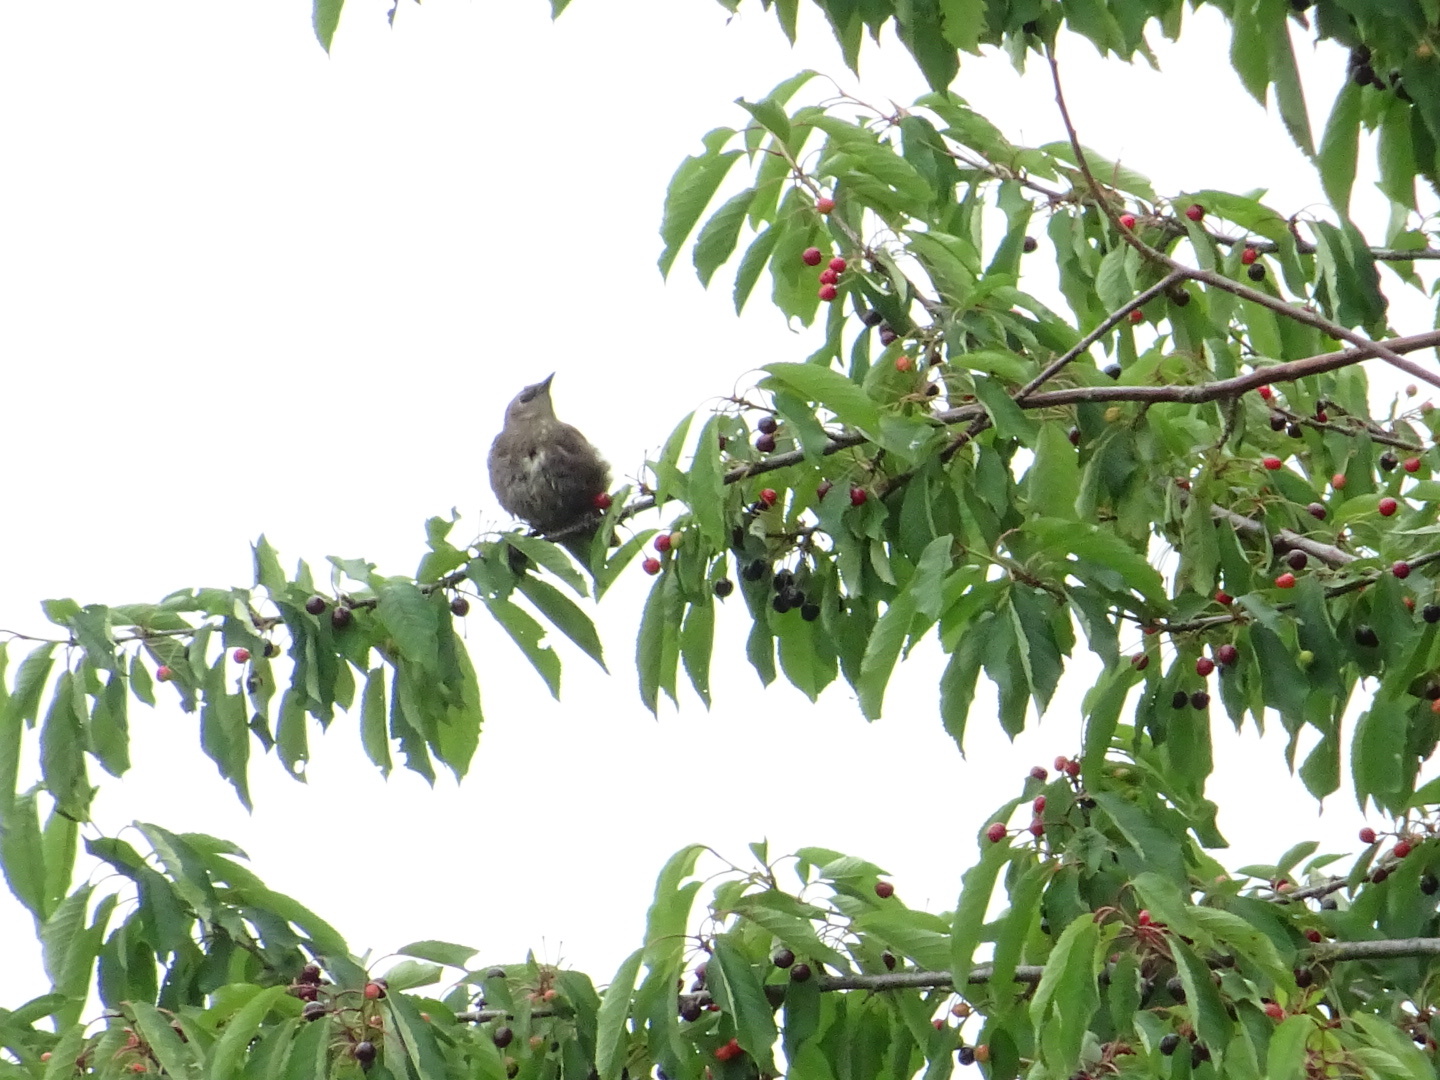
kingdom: Animalia
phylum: Chordata
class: Aves
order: Passeriformes
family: Sturnidae
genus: Sturnus
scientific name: Sturnus vulgaris
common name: Common starling
